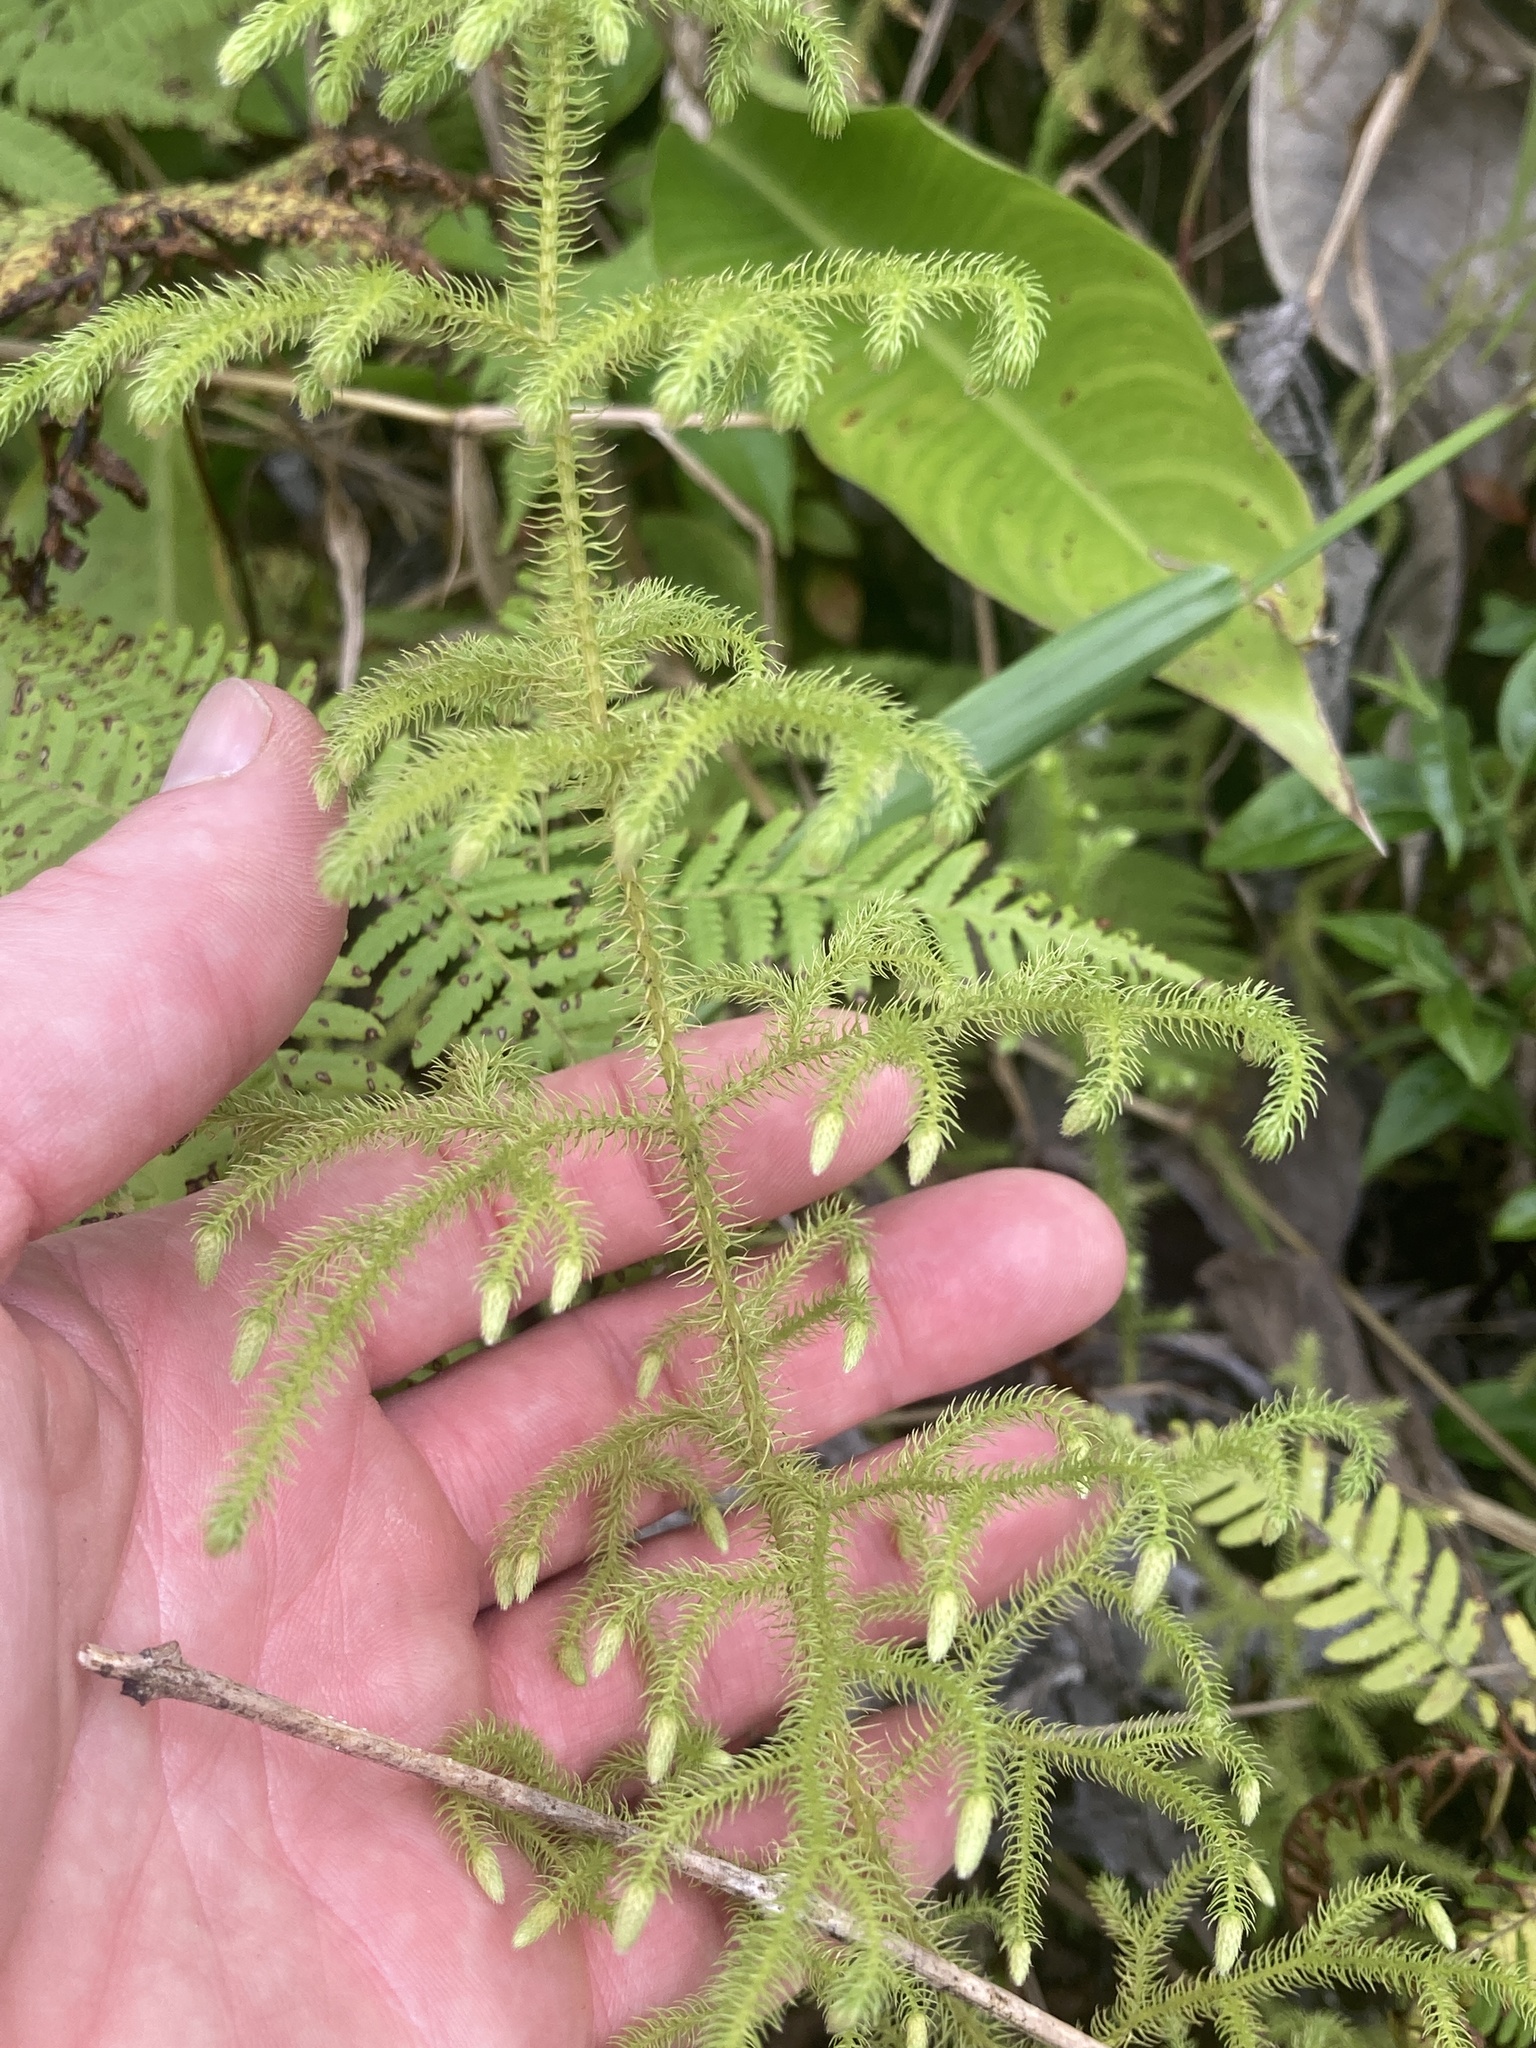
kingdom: Plantae
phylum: Tracheophyta
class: Lycopodiopsida
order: Lycopodiales
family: Lycopodiaceae
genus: Palhinhaea
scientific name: Palhinhaea cernua
